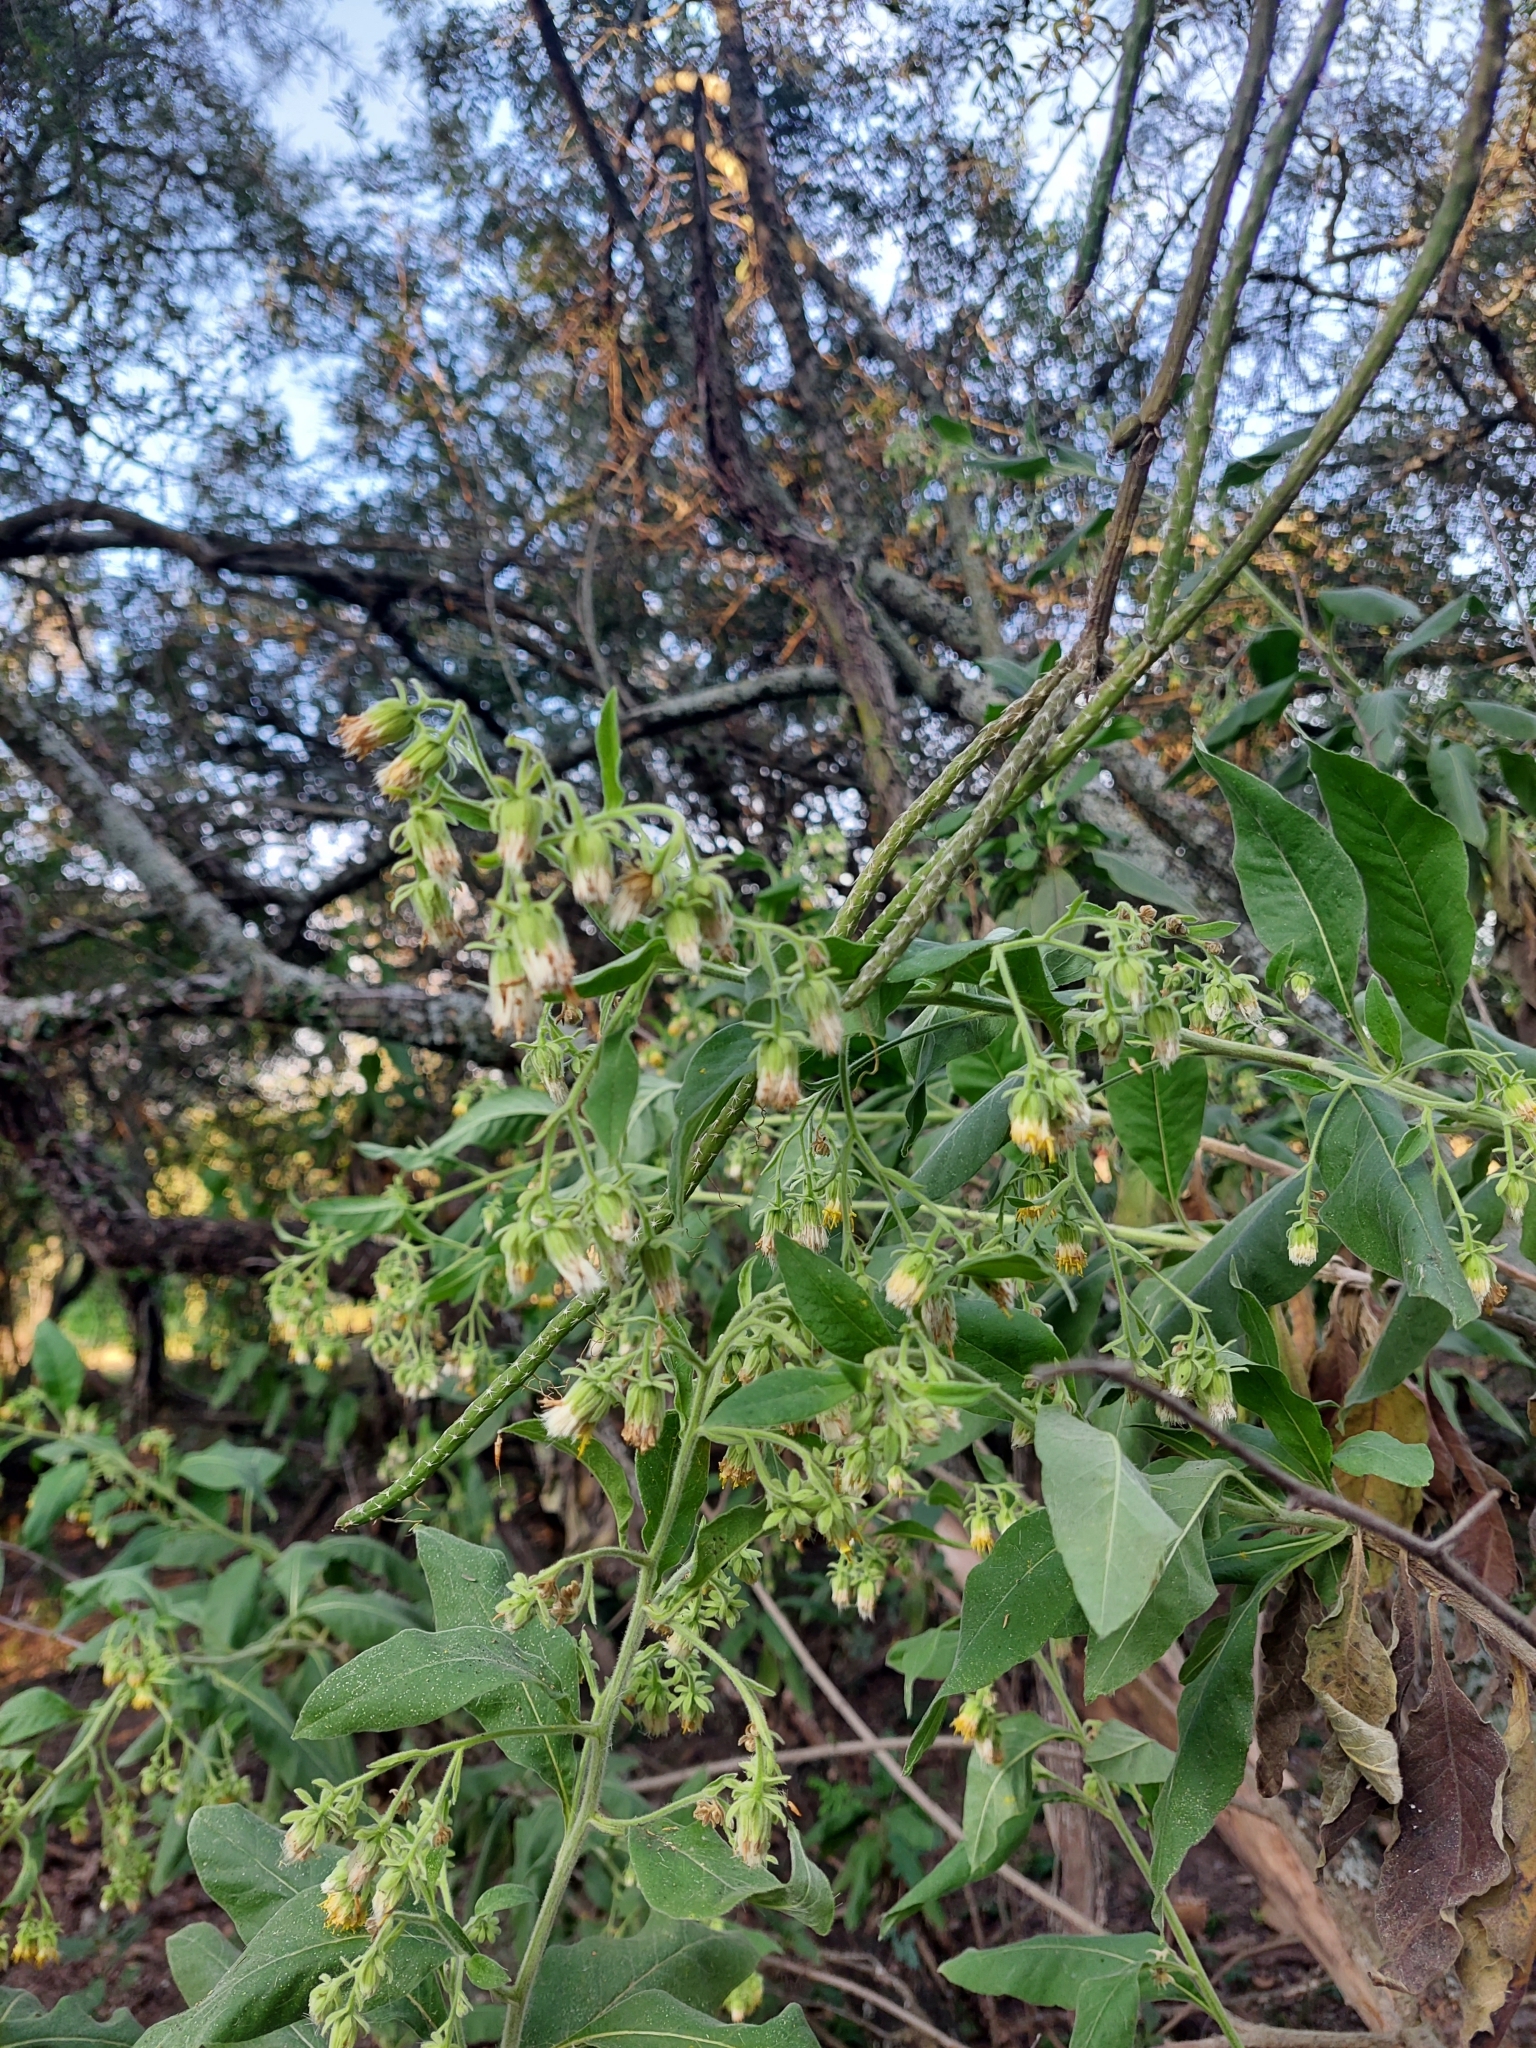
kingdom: Plantae
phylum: Tracheophyta
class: Magnoliopsida
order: Asterales
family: Asteraceae
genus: Trixis
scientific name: Trixis praestans
